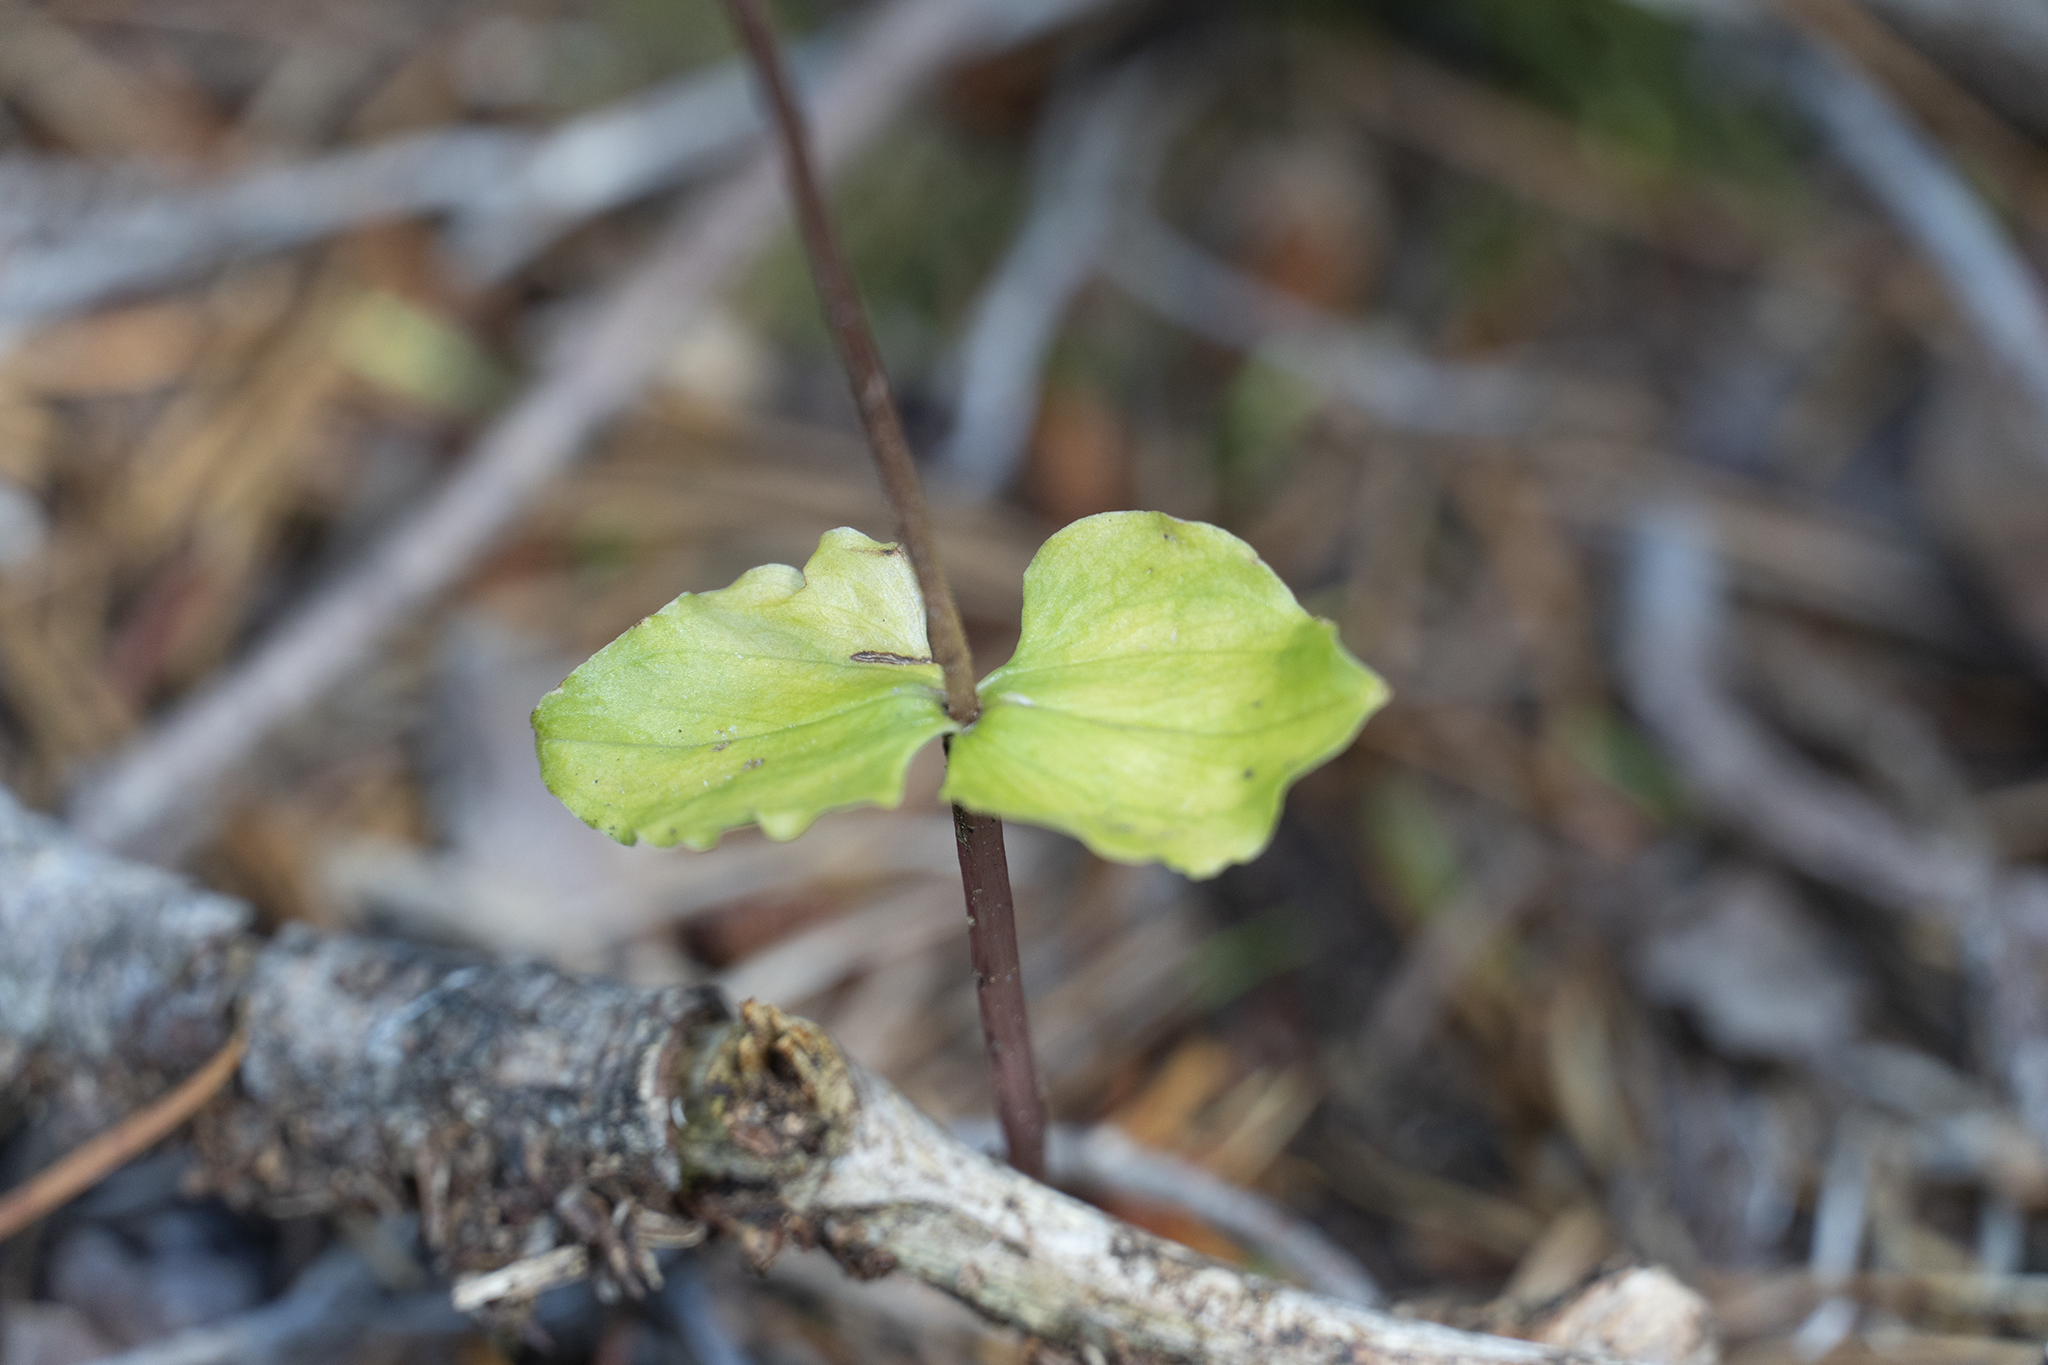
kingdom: Plantae
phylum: Tracheophyta
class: Liliopsida
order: Asparagales
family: Orchidaceae
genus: Neottia
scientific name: Neottia cordata
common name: Lesser twayblade
